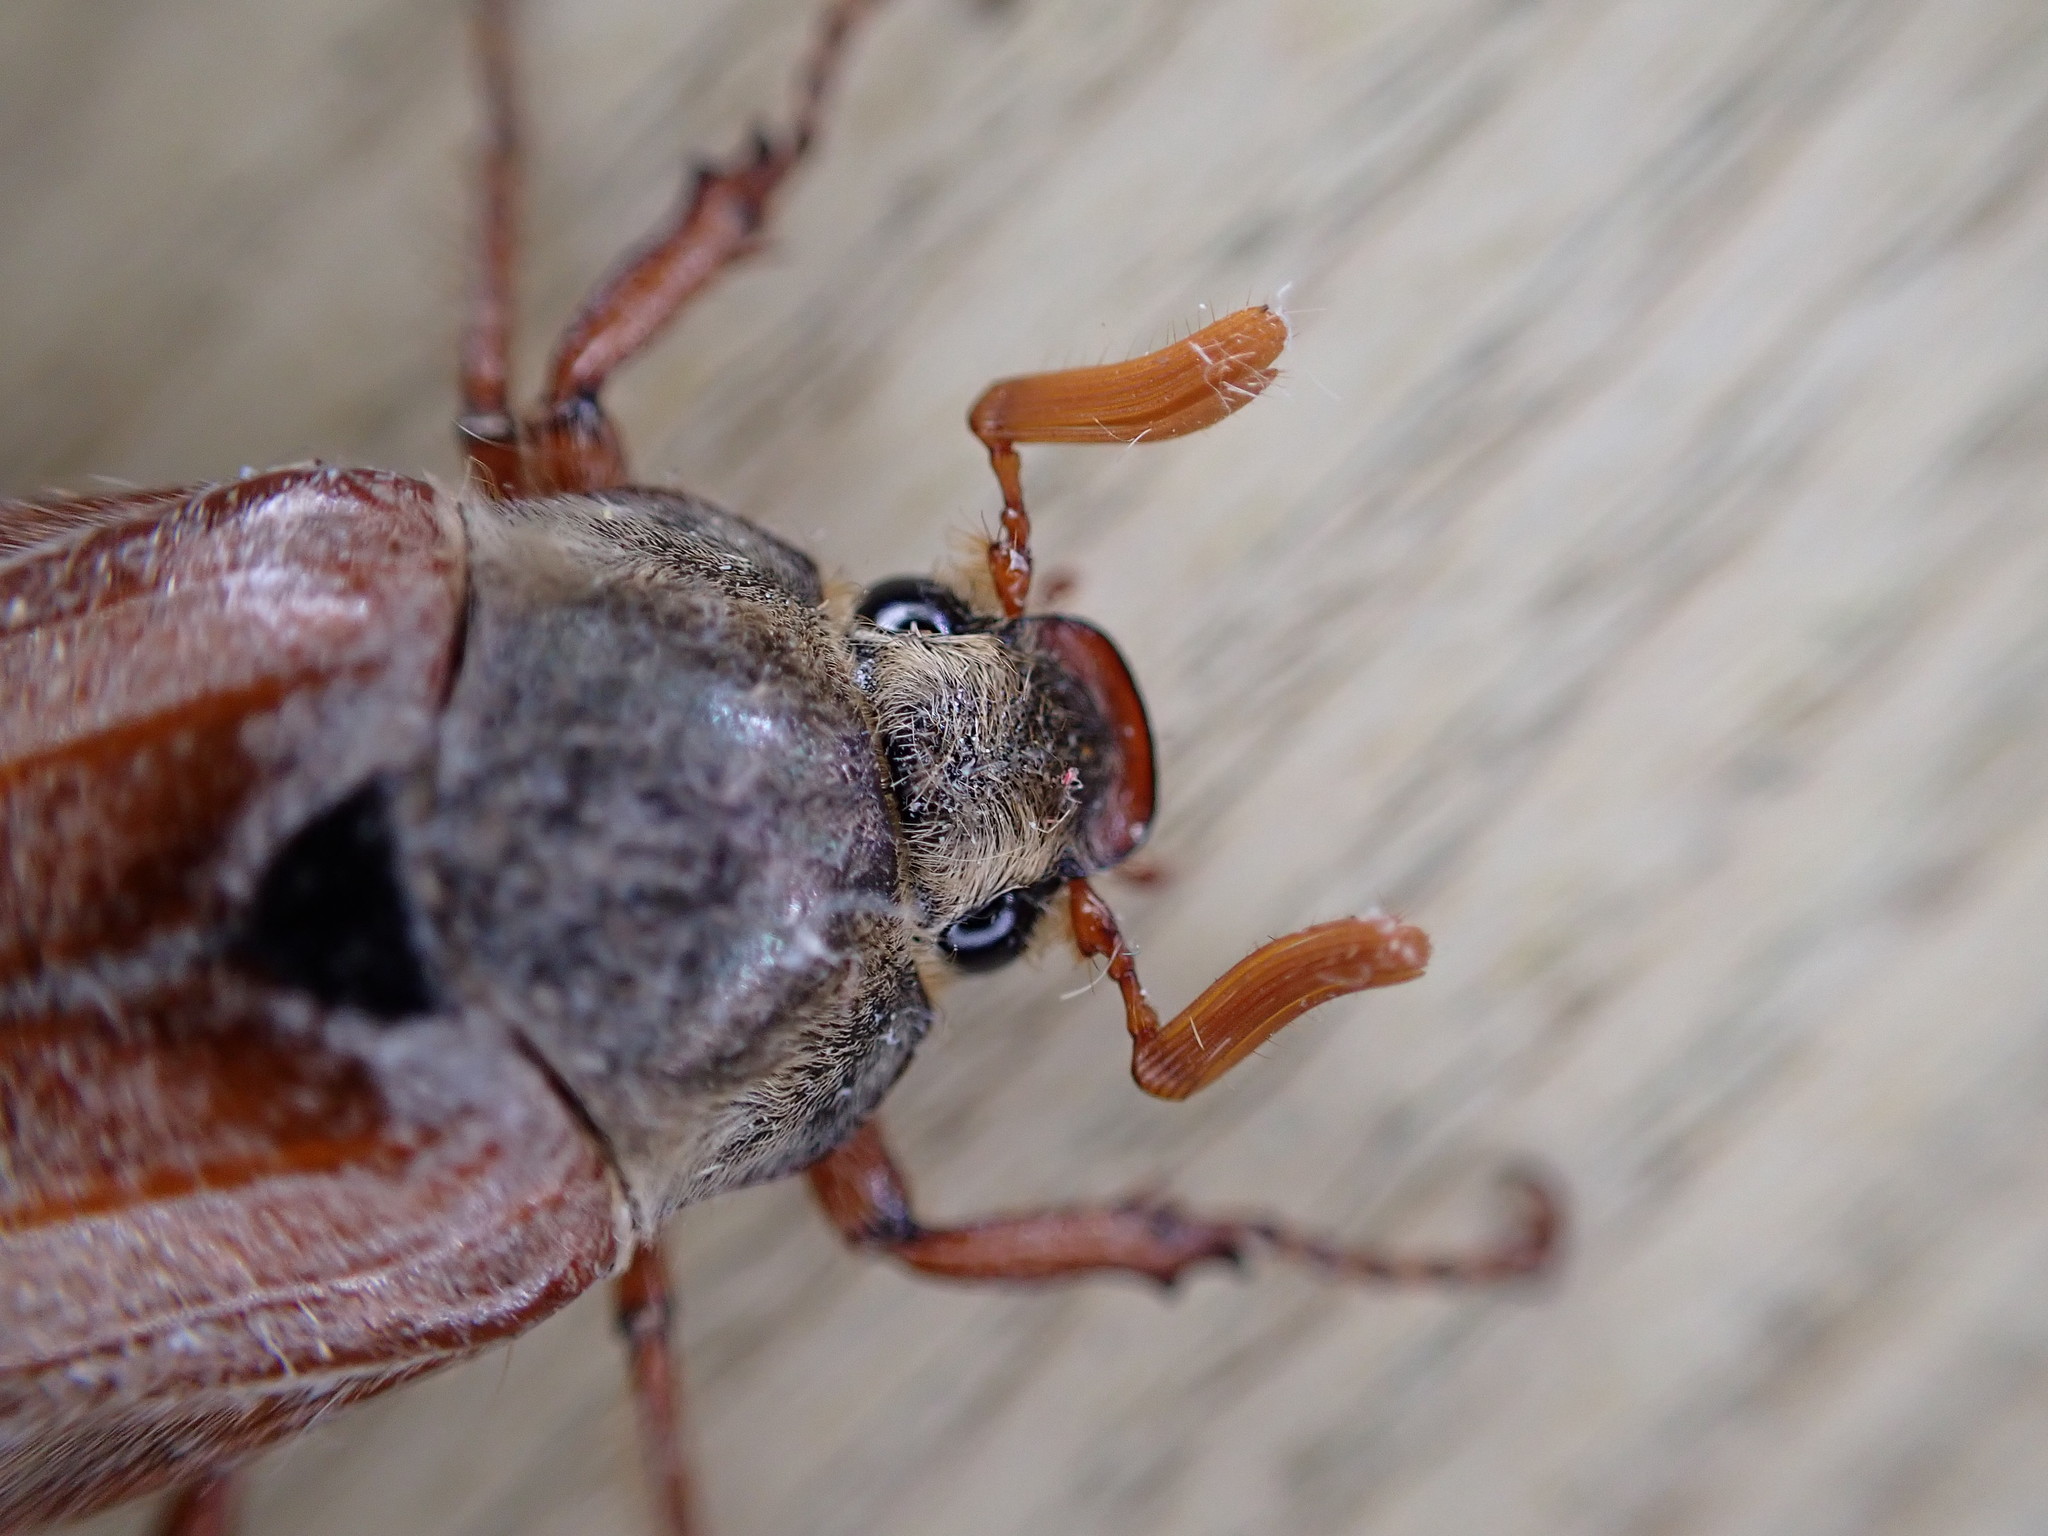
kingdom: Animalia
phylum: Arthropoda
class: Insecta
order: Coleoptera
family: Scarabaeidae
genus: Melolontha
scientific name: Melolontha melolontha
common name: Cockchafer maybeetle
